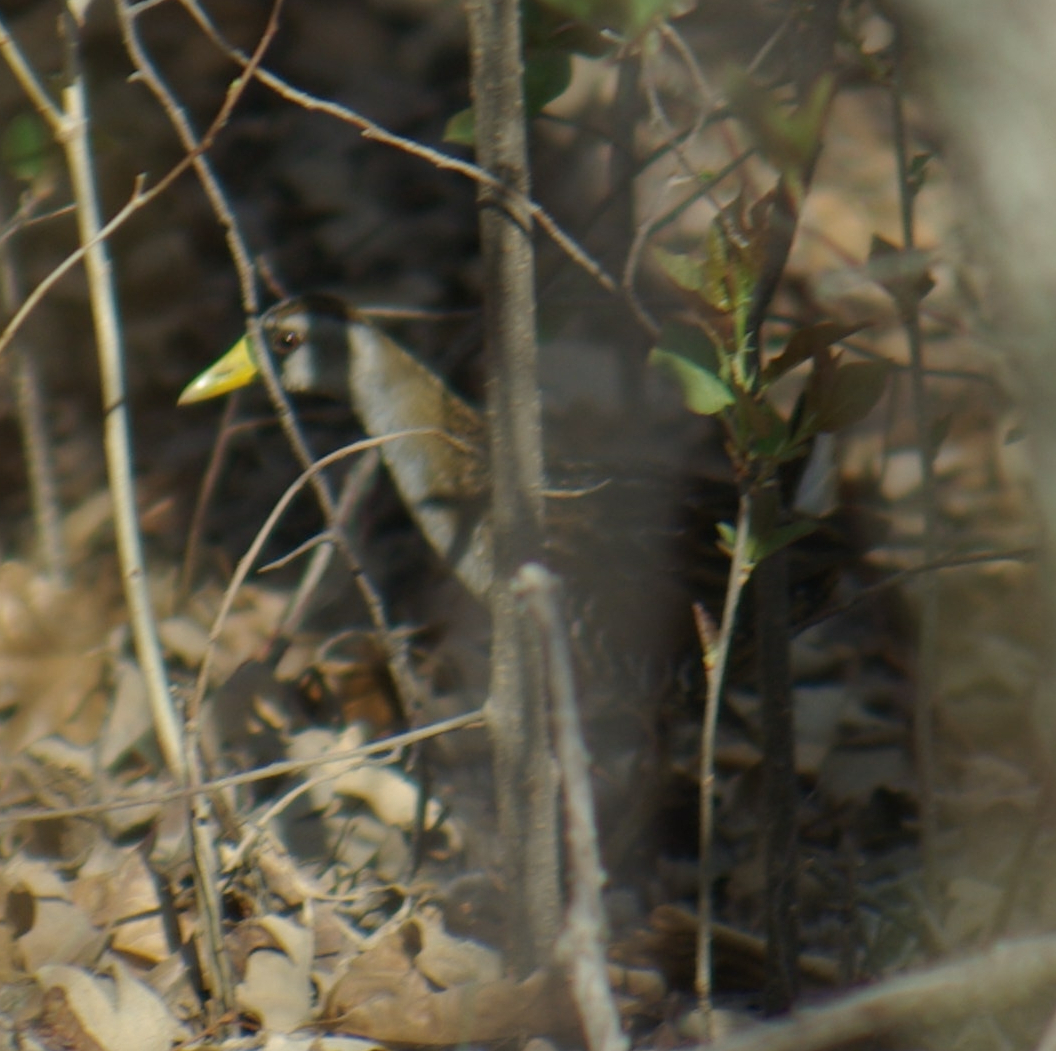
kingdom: Animalia
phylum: Chordata
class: Aves
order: Gruiformes
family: Rallidae
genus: Porzana
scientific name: Porzana carolina
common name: Sora
